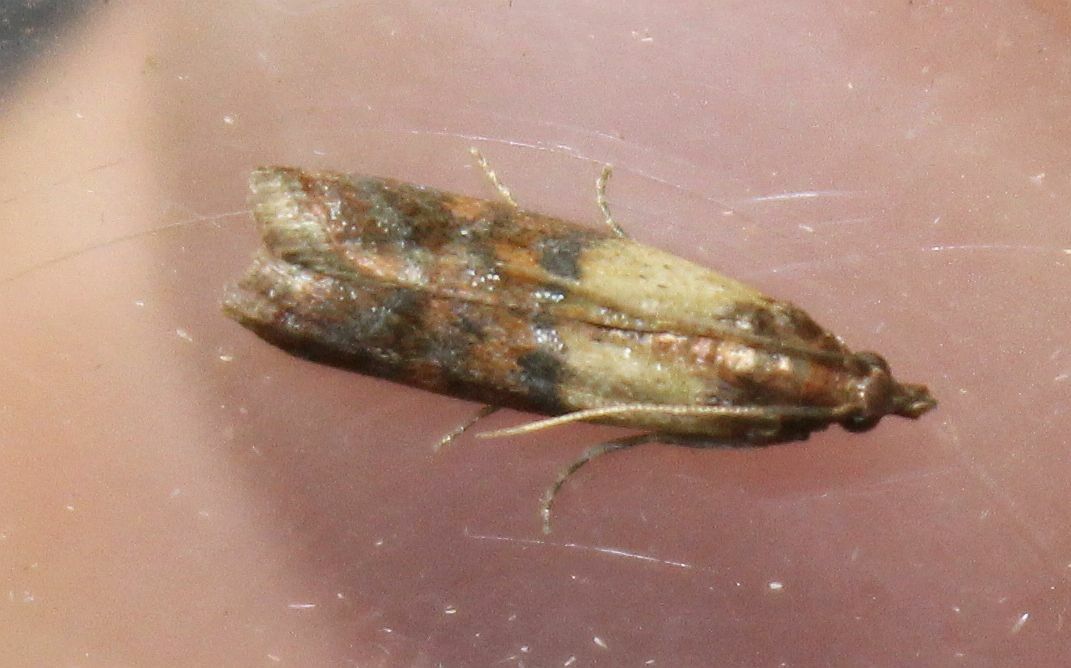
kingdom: Animalia
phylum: Arthropoda
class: Insecta
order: Lepidoptera
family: Pyralidae
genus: Plodia
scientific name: Plodia interpunctella
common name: Indian meal moth
